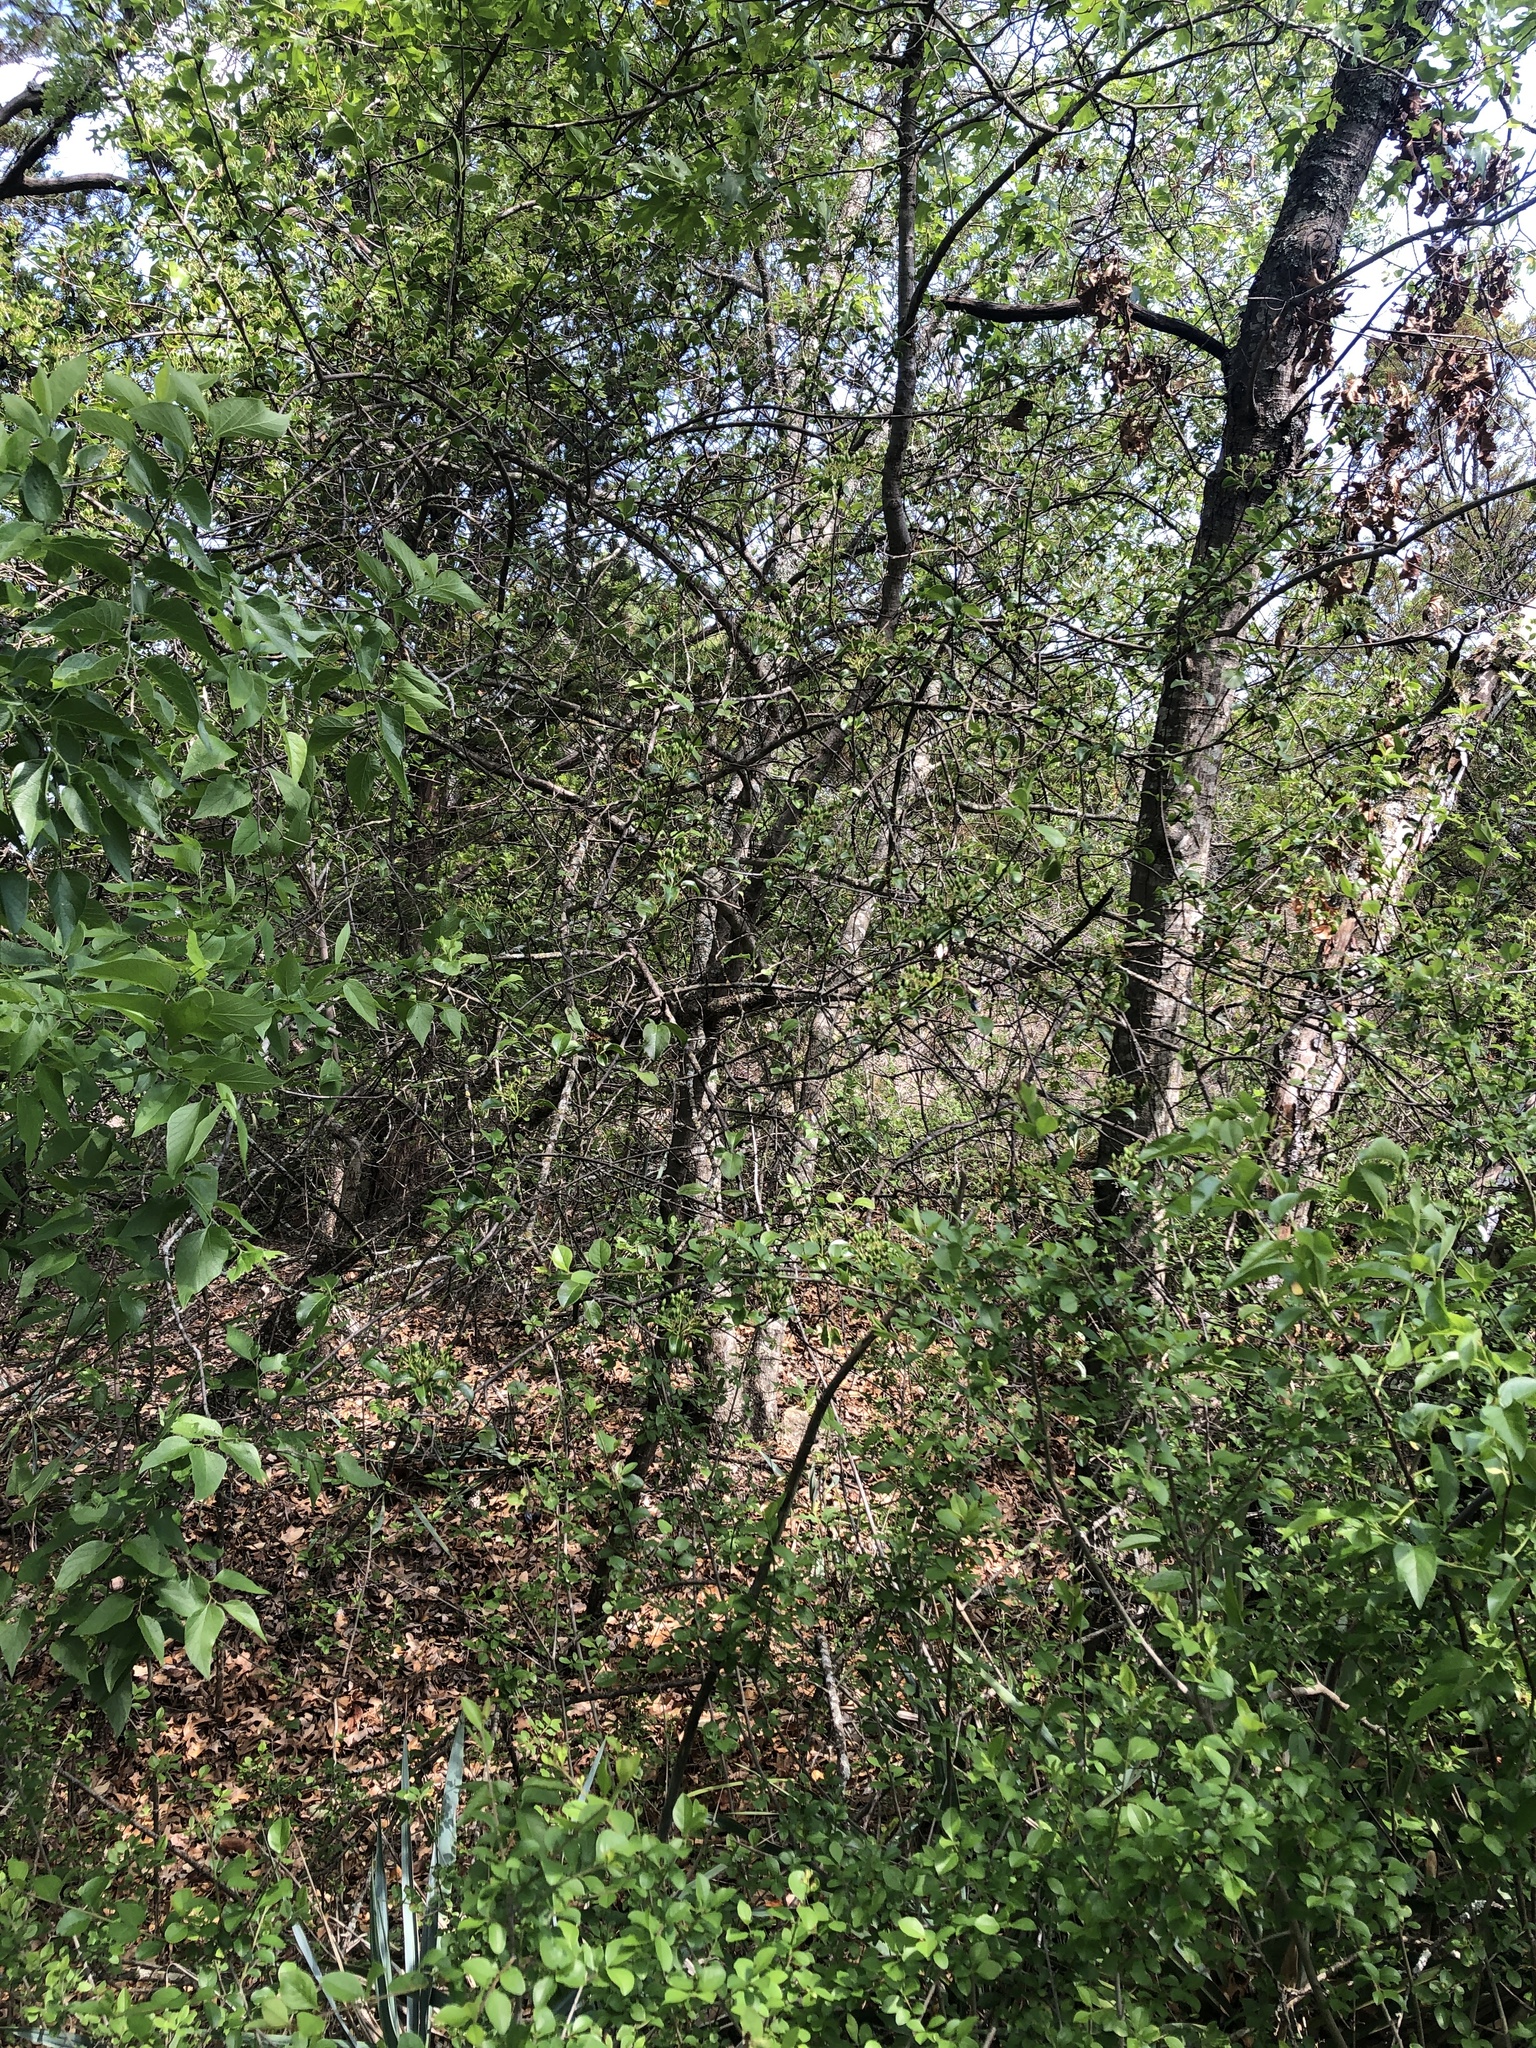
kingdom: Plantae
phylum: Tracheophyta
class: Magnoliopsida
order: Dipsacales
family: Viburnaceae
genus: Viburnum
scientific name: Viburnum rufidulum
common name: Blue haw
